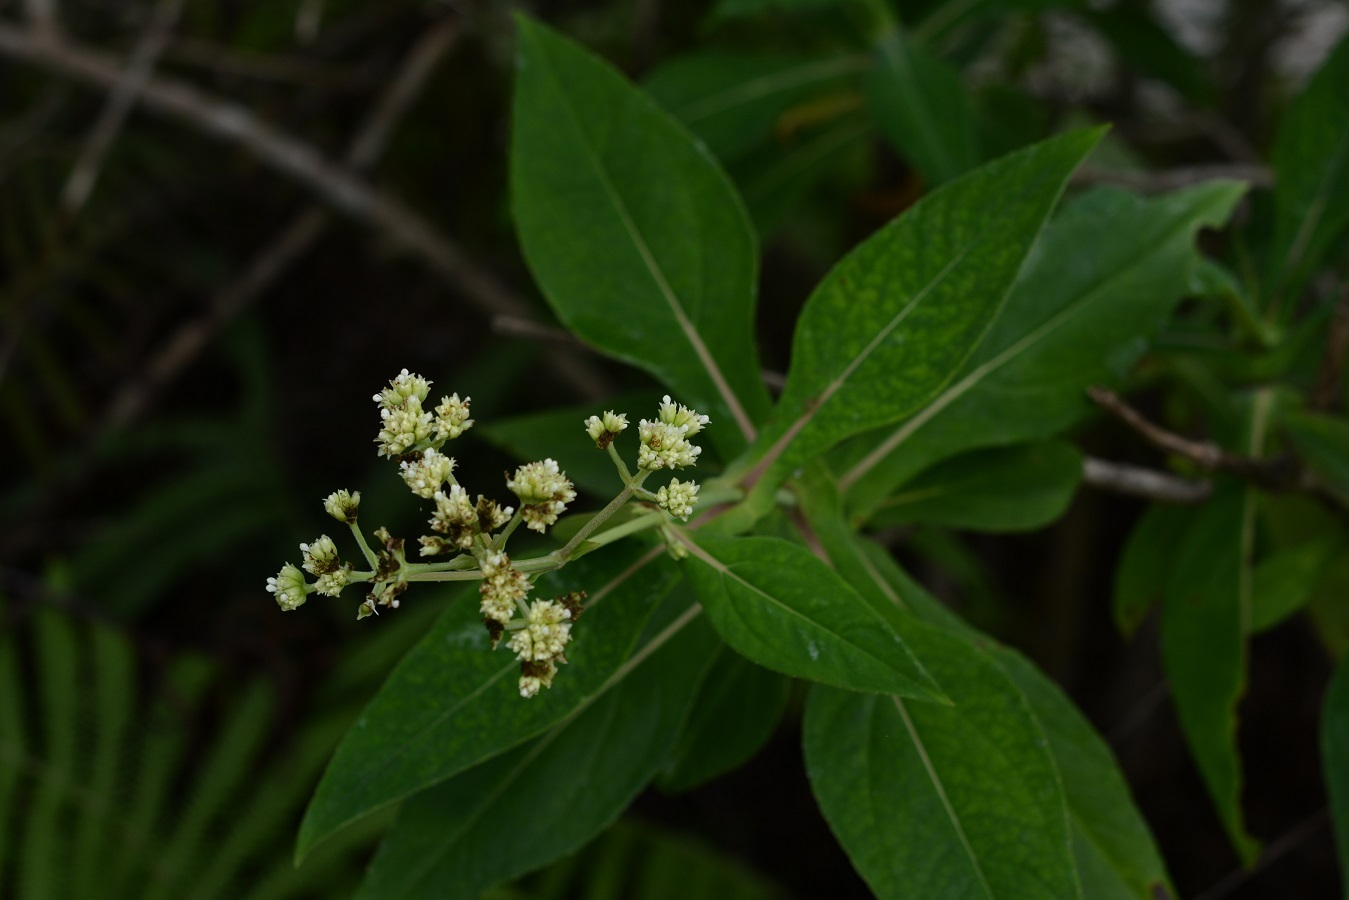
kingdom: Plantae
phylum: Tracheophyta
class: Magnoliopsida
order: Asterales
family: Asteraceae
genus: Desmanthodium
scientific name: Desmanthodium perfoliatum
